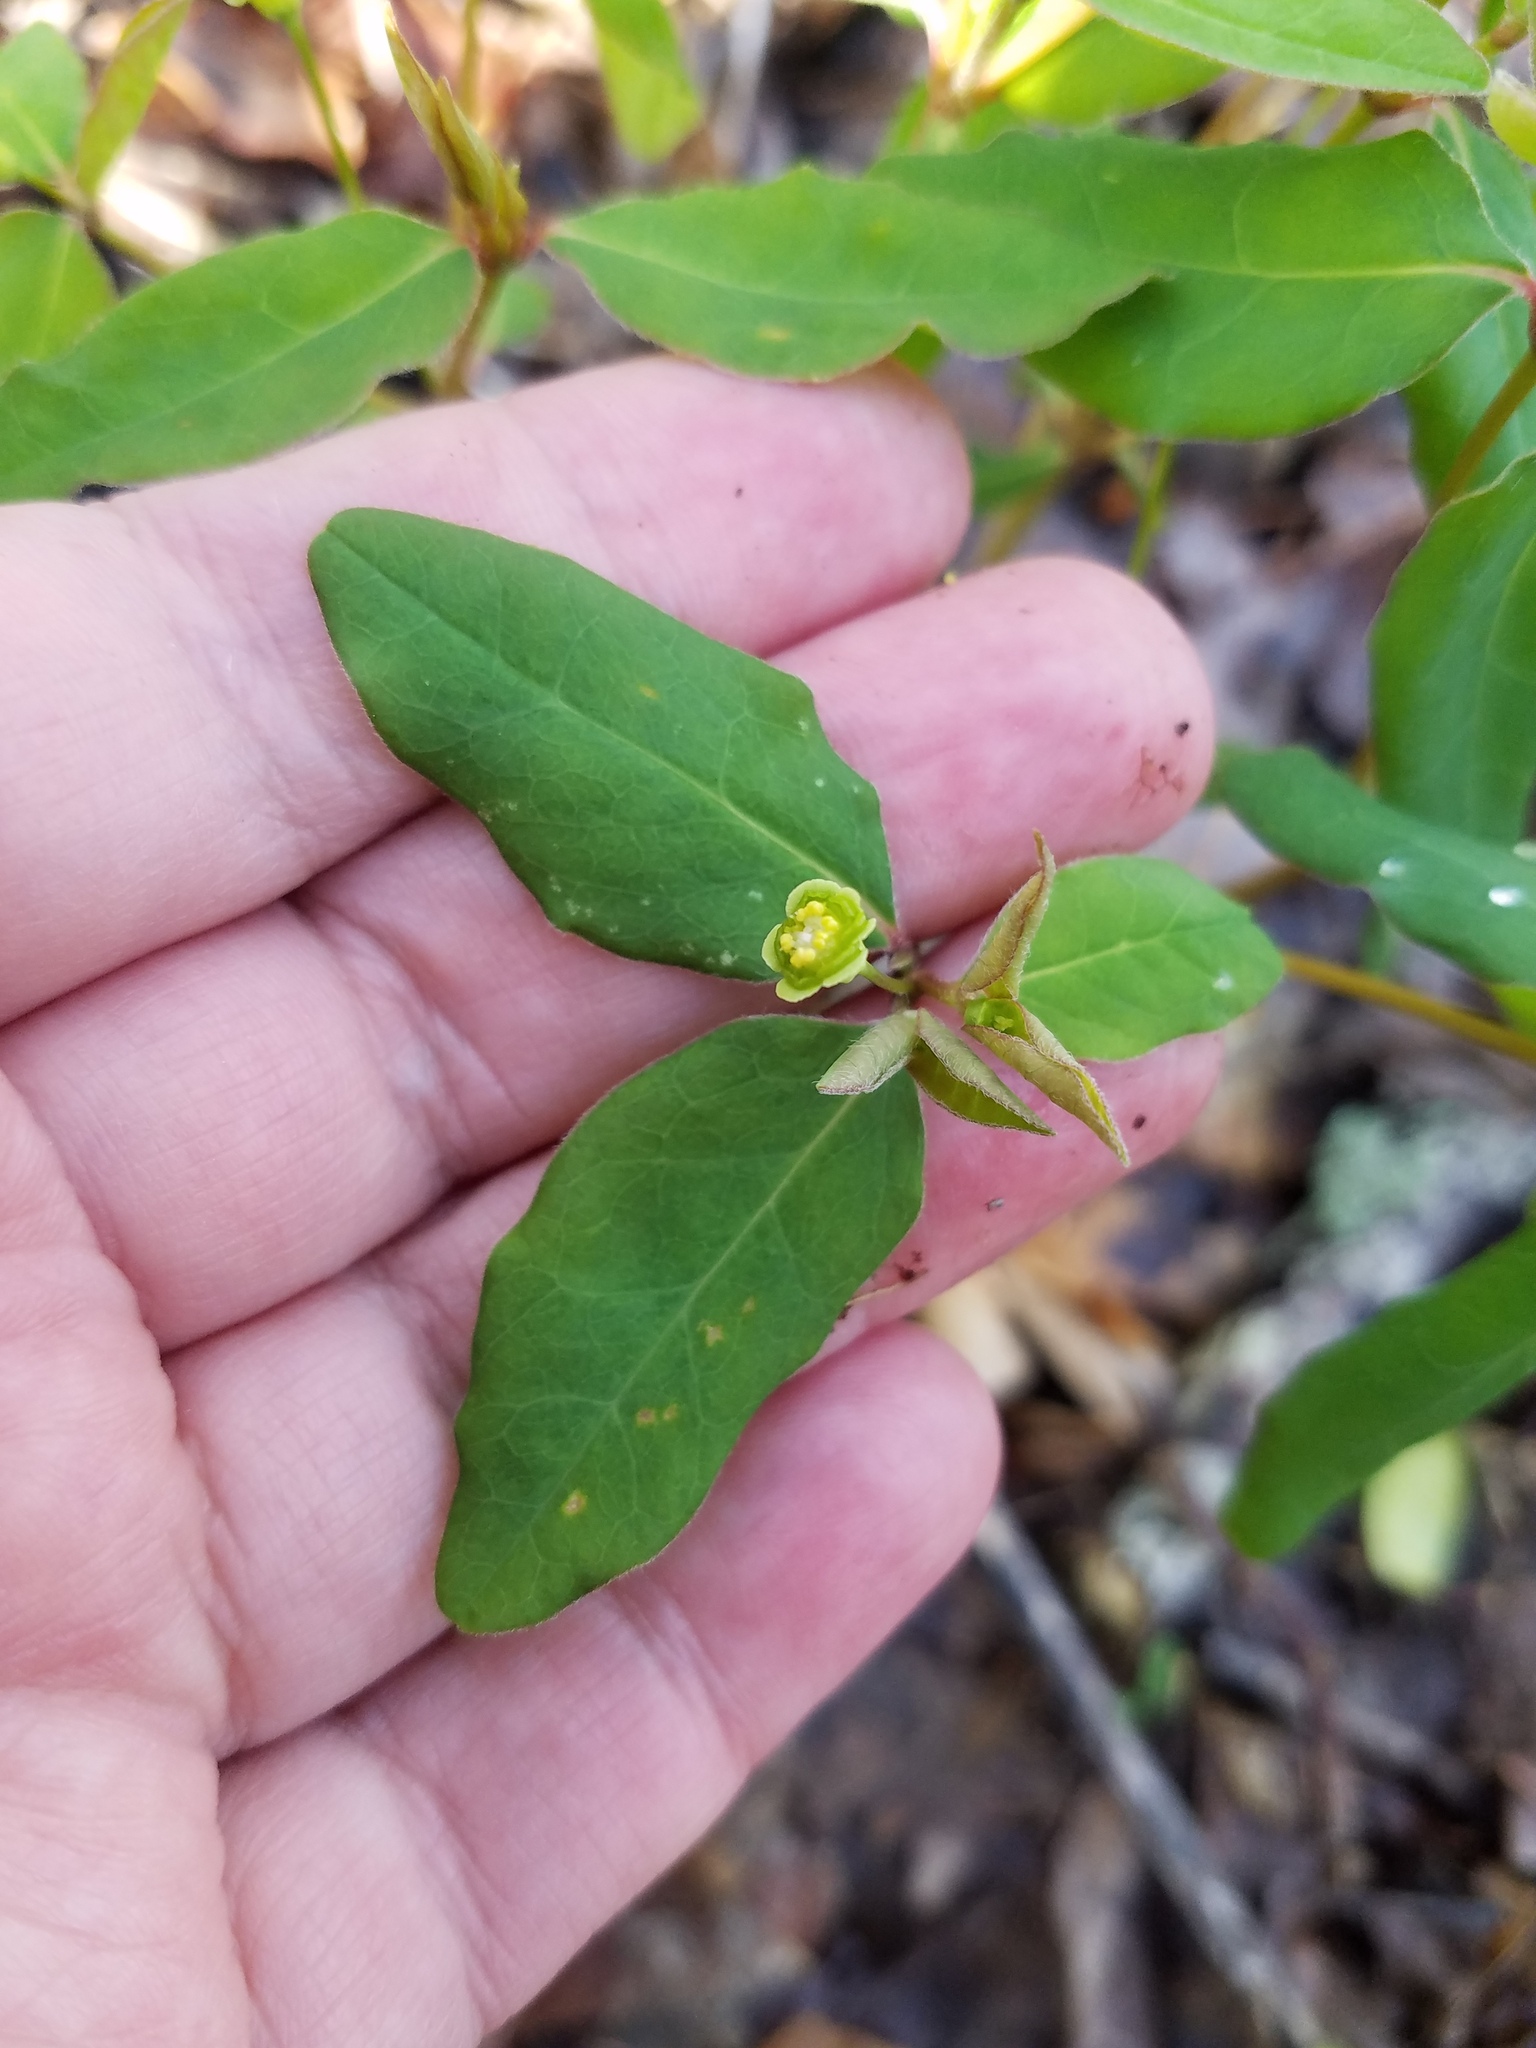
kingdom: Plantae
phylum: Tracheophyta
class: Magnoliopsida
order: Malpighiales
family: Euphorbiaceae
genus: Euphorbia
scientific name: Euphorbia mercurialina
